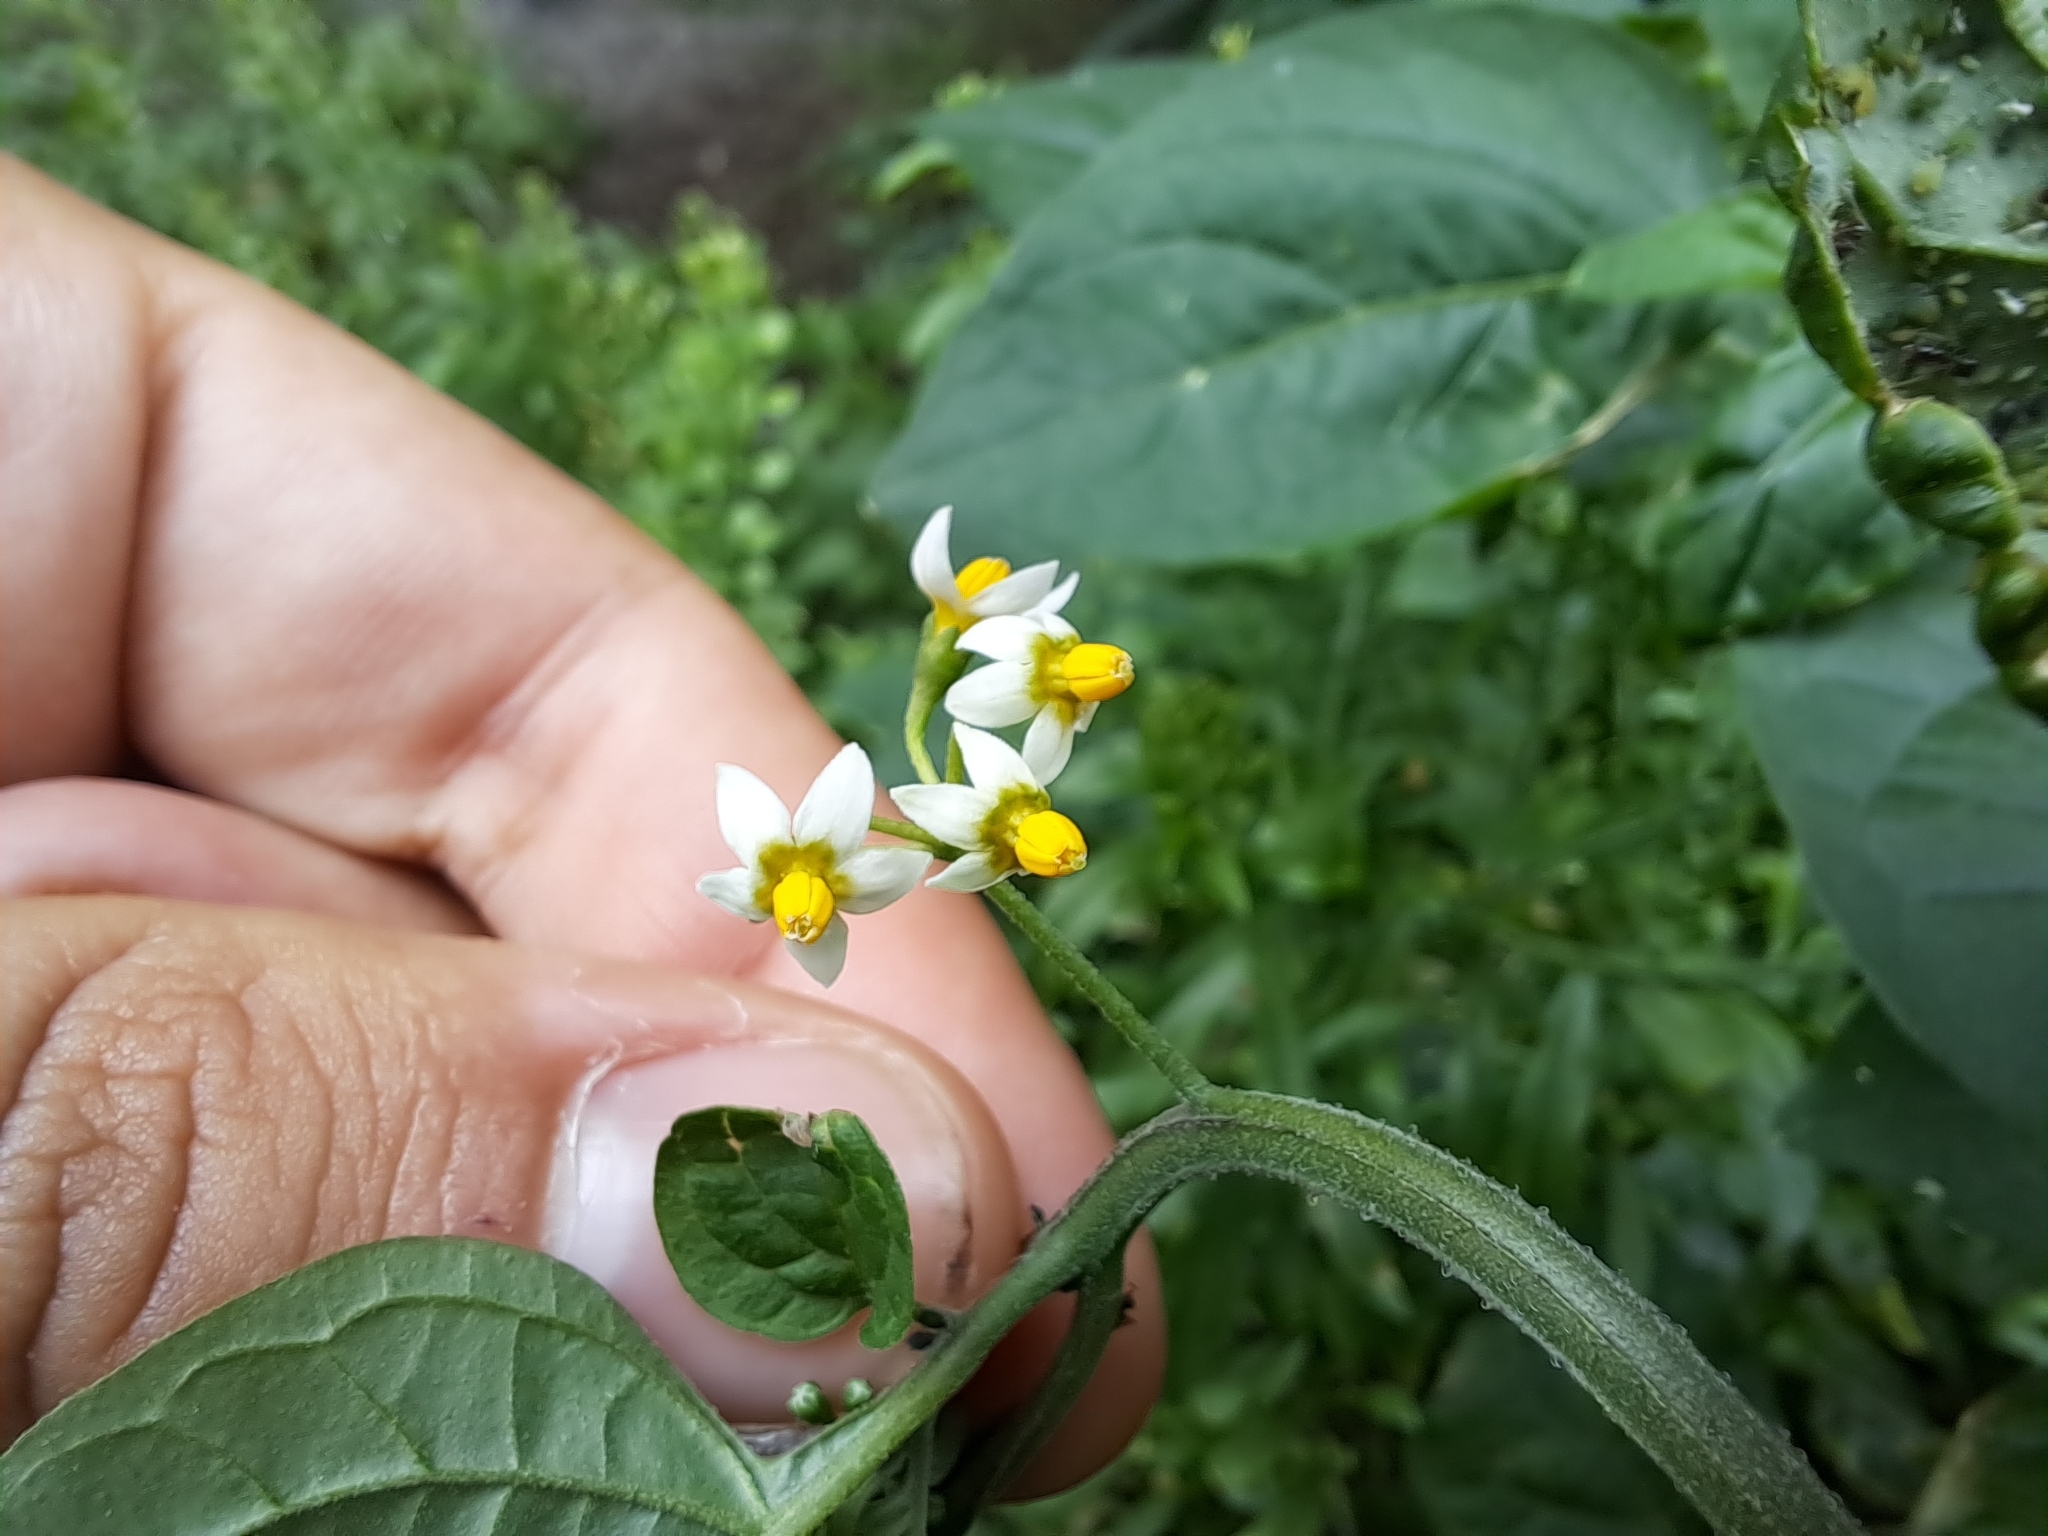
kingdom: Plantae
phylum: Tracheophyta
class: Magnoliopsida
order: Solanales
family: Solanaceae
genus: Solanum
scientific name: Solanum americanum
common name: American black nightshade
